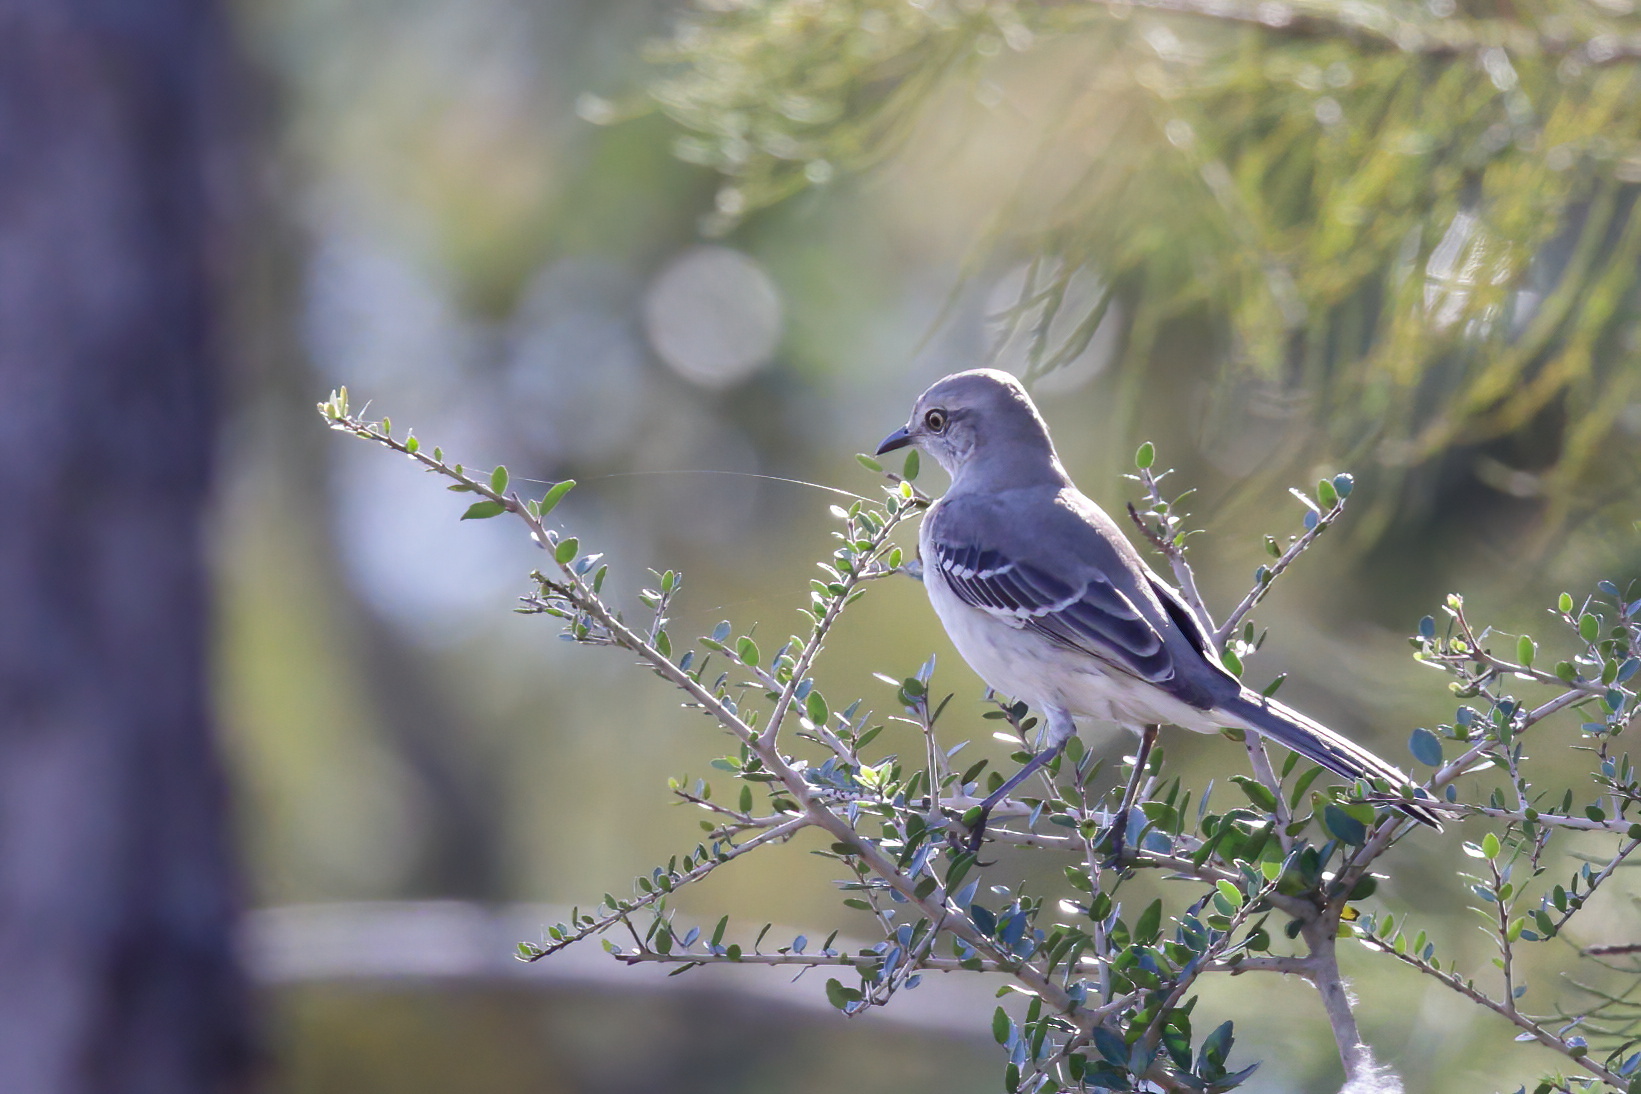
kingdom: Animalia
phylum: Chordata
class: Aves
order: Passeriformes
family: Mimidae
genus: Mimus
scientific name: Mimus polyglottos
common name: Northern mockingbird
